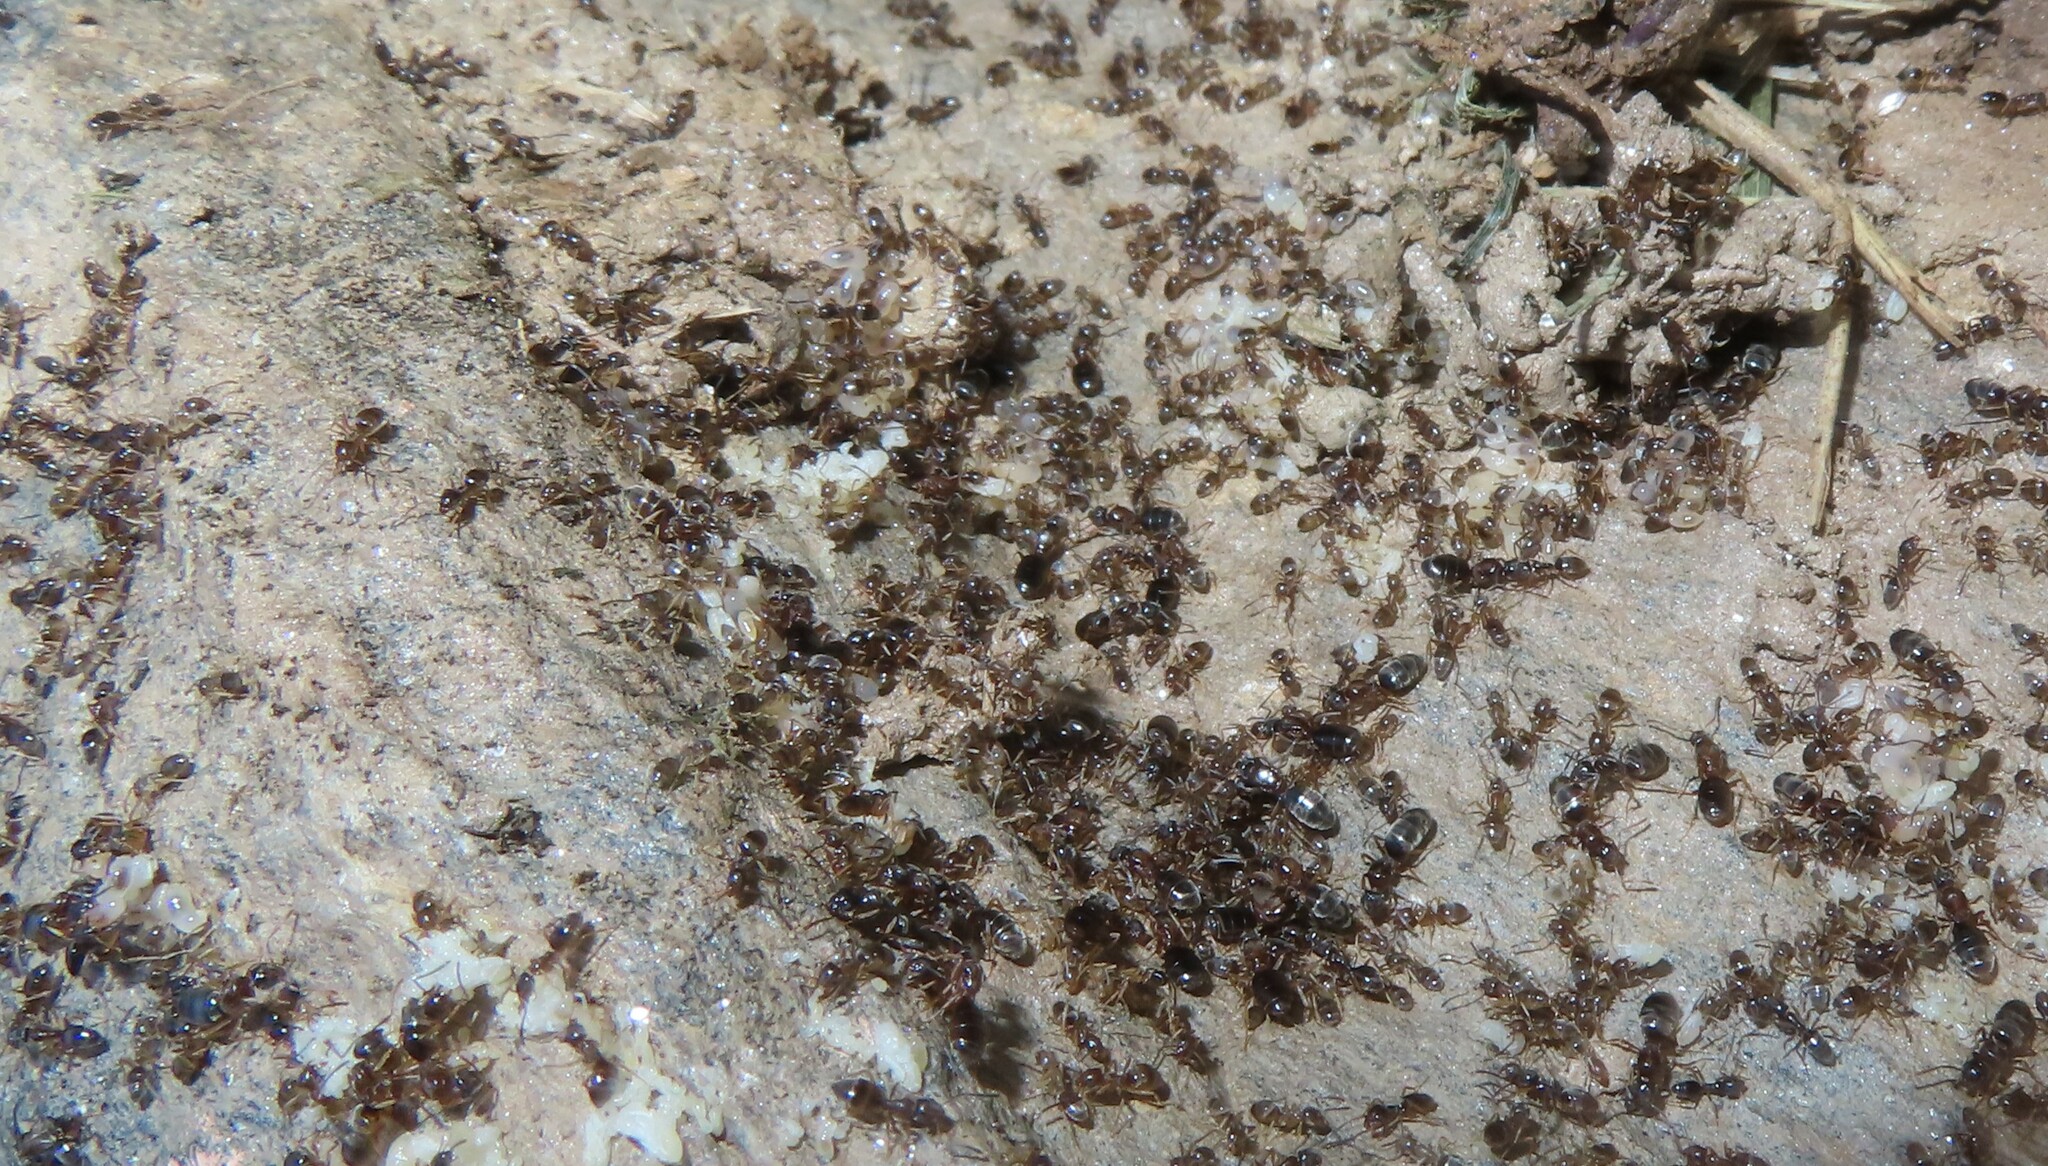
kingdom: Animalia
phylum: Arthropoda
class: Insecta
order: Hymenoptera
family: Formicidae
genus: Tapinoma
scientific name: Tapinoma sessile
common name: Odorous house ant
